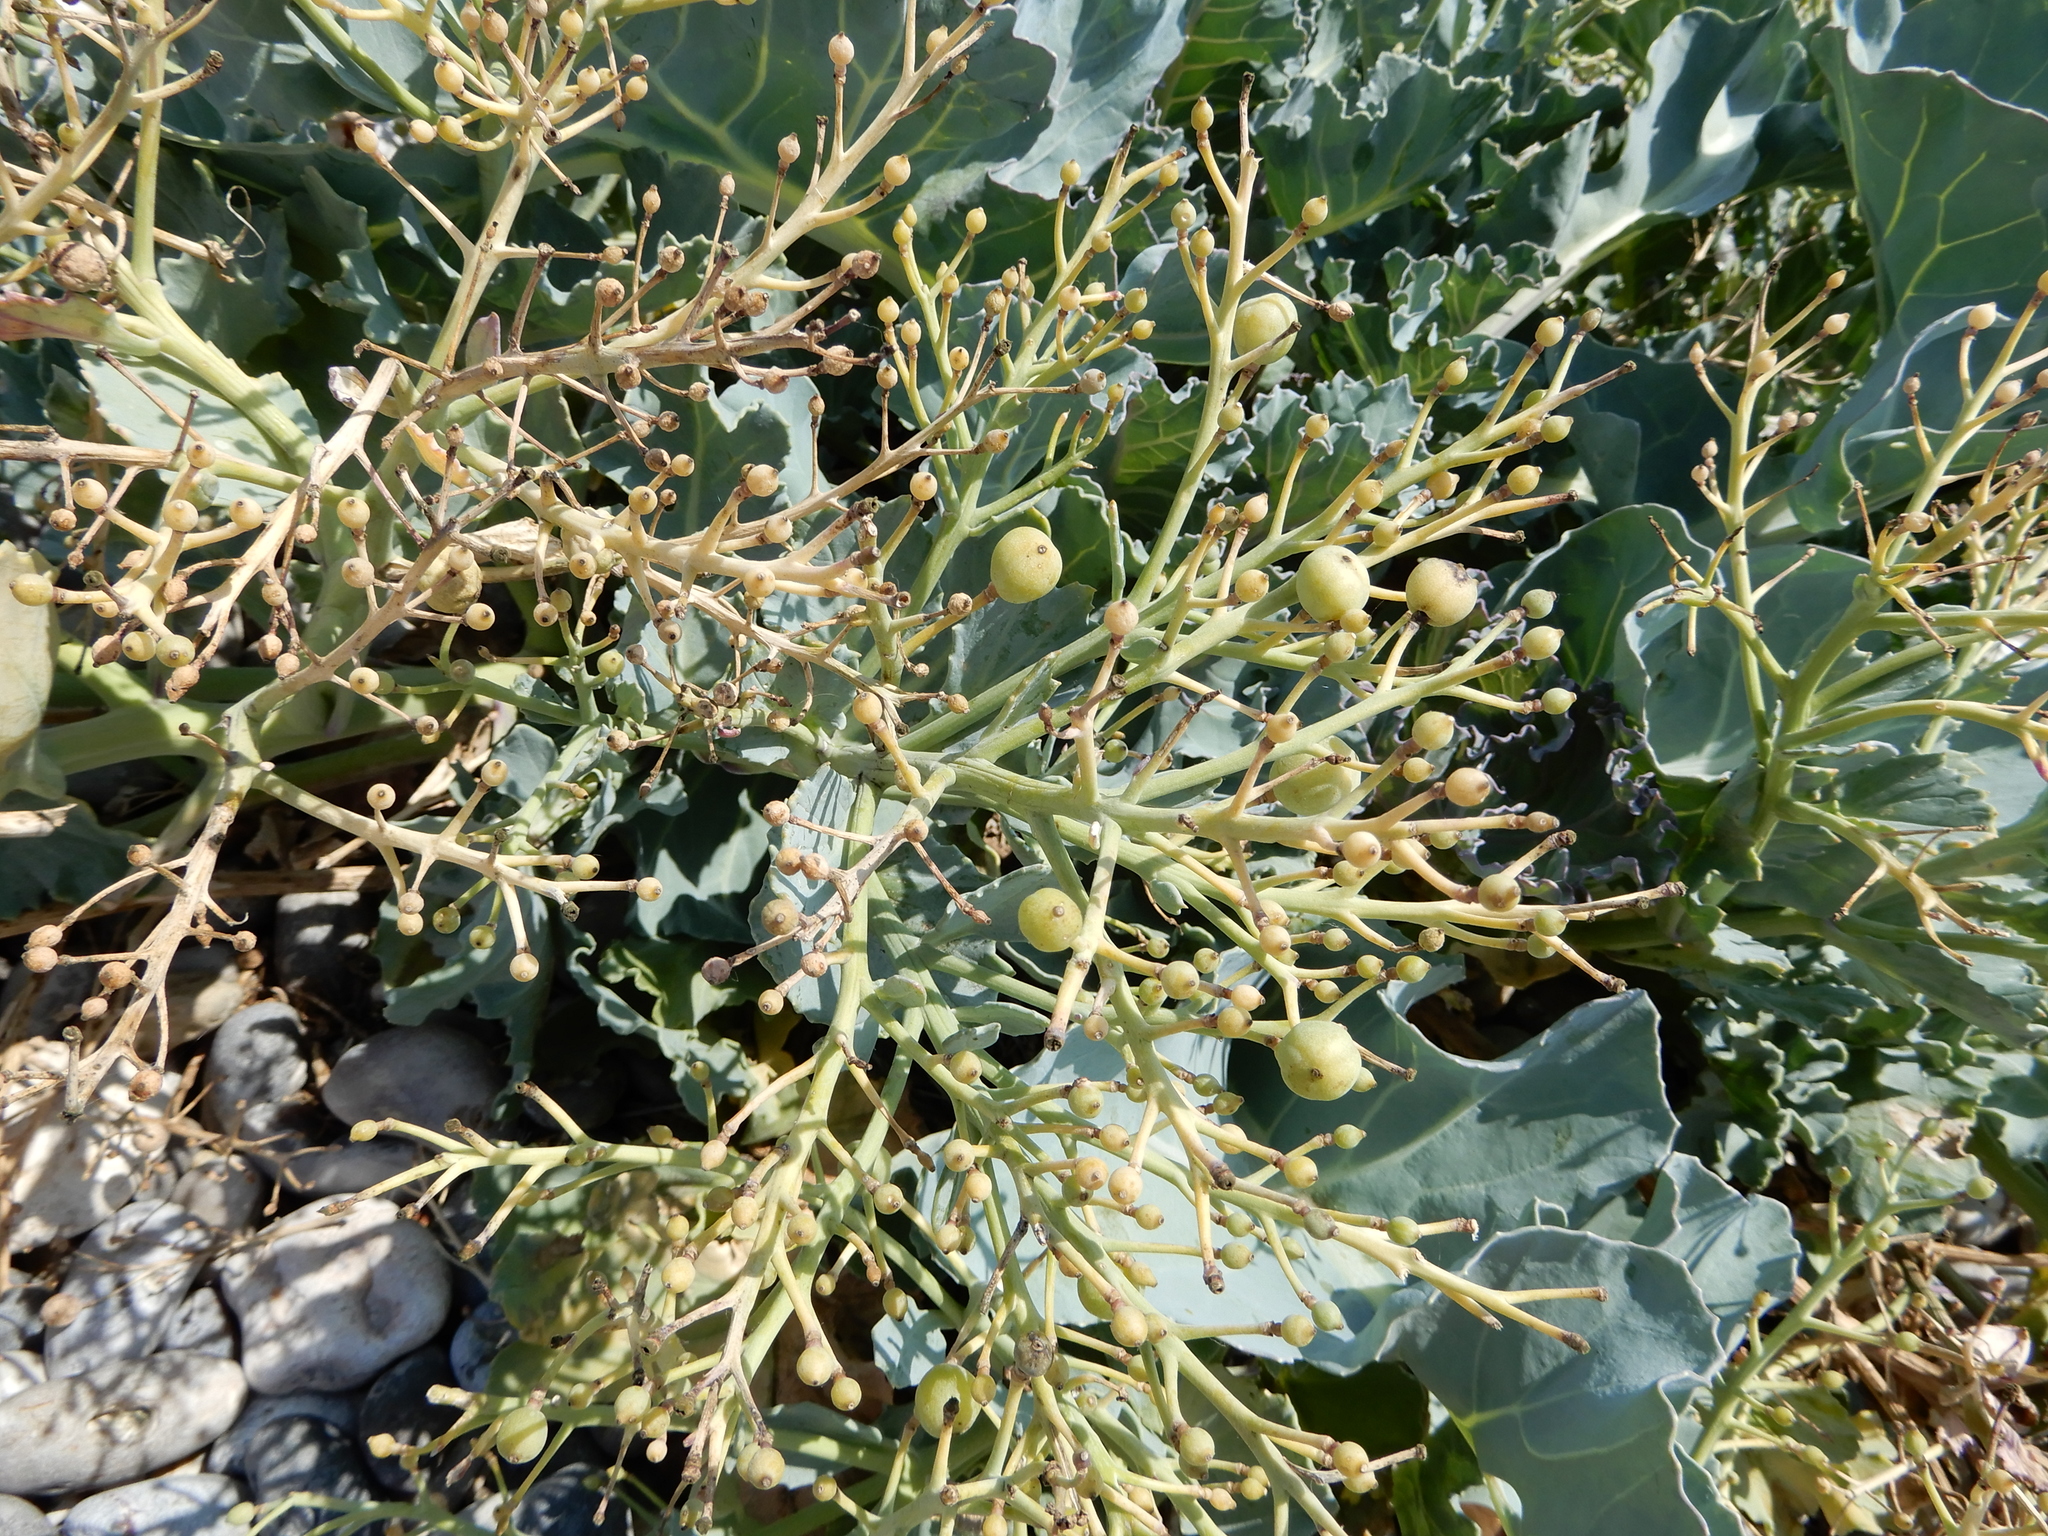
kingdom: Plantae
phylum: Tracheophyta
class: Magnoliopsida
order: Brassicales
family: Brassicaceae
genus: Crambe
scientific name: Crambe maritima
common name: Sea-kale
